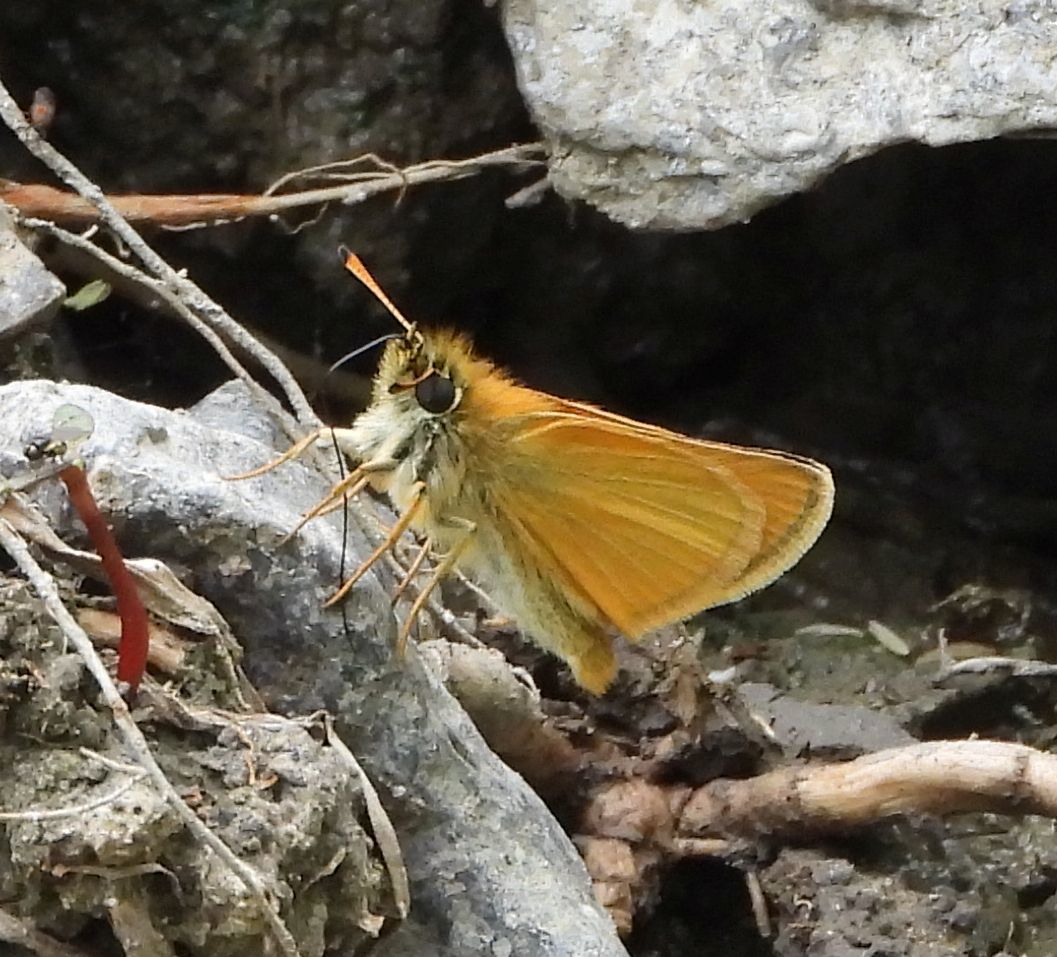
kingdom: Animalia
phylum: Arthropoda
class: Insecta
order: Lepidoptera
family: Hesperiidae
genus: Thymelicus
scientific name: Thymelicus lineola
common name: Essex skipper
